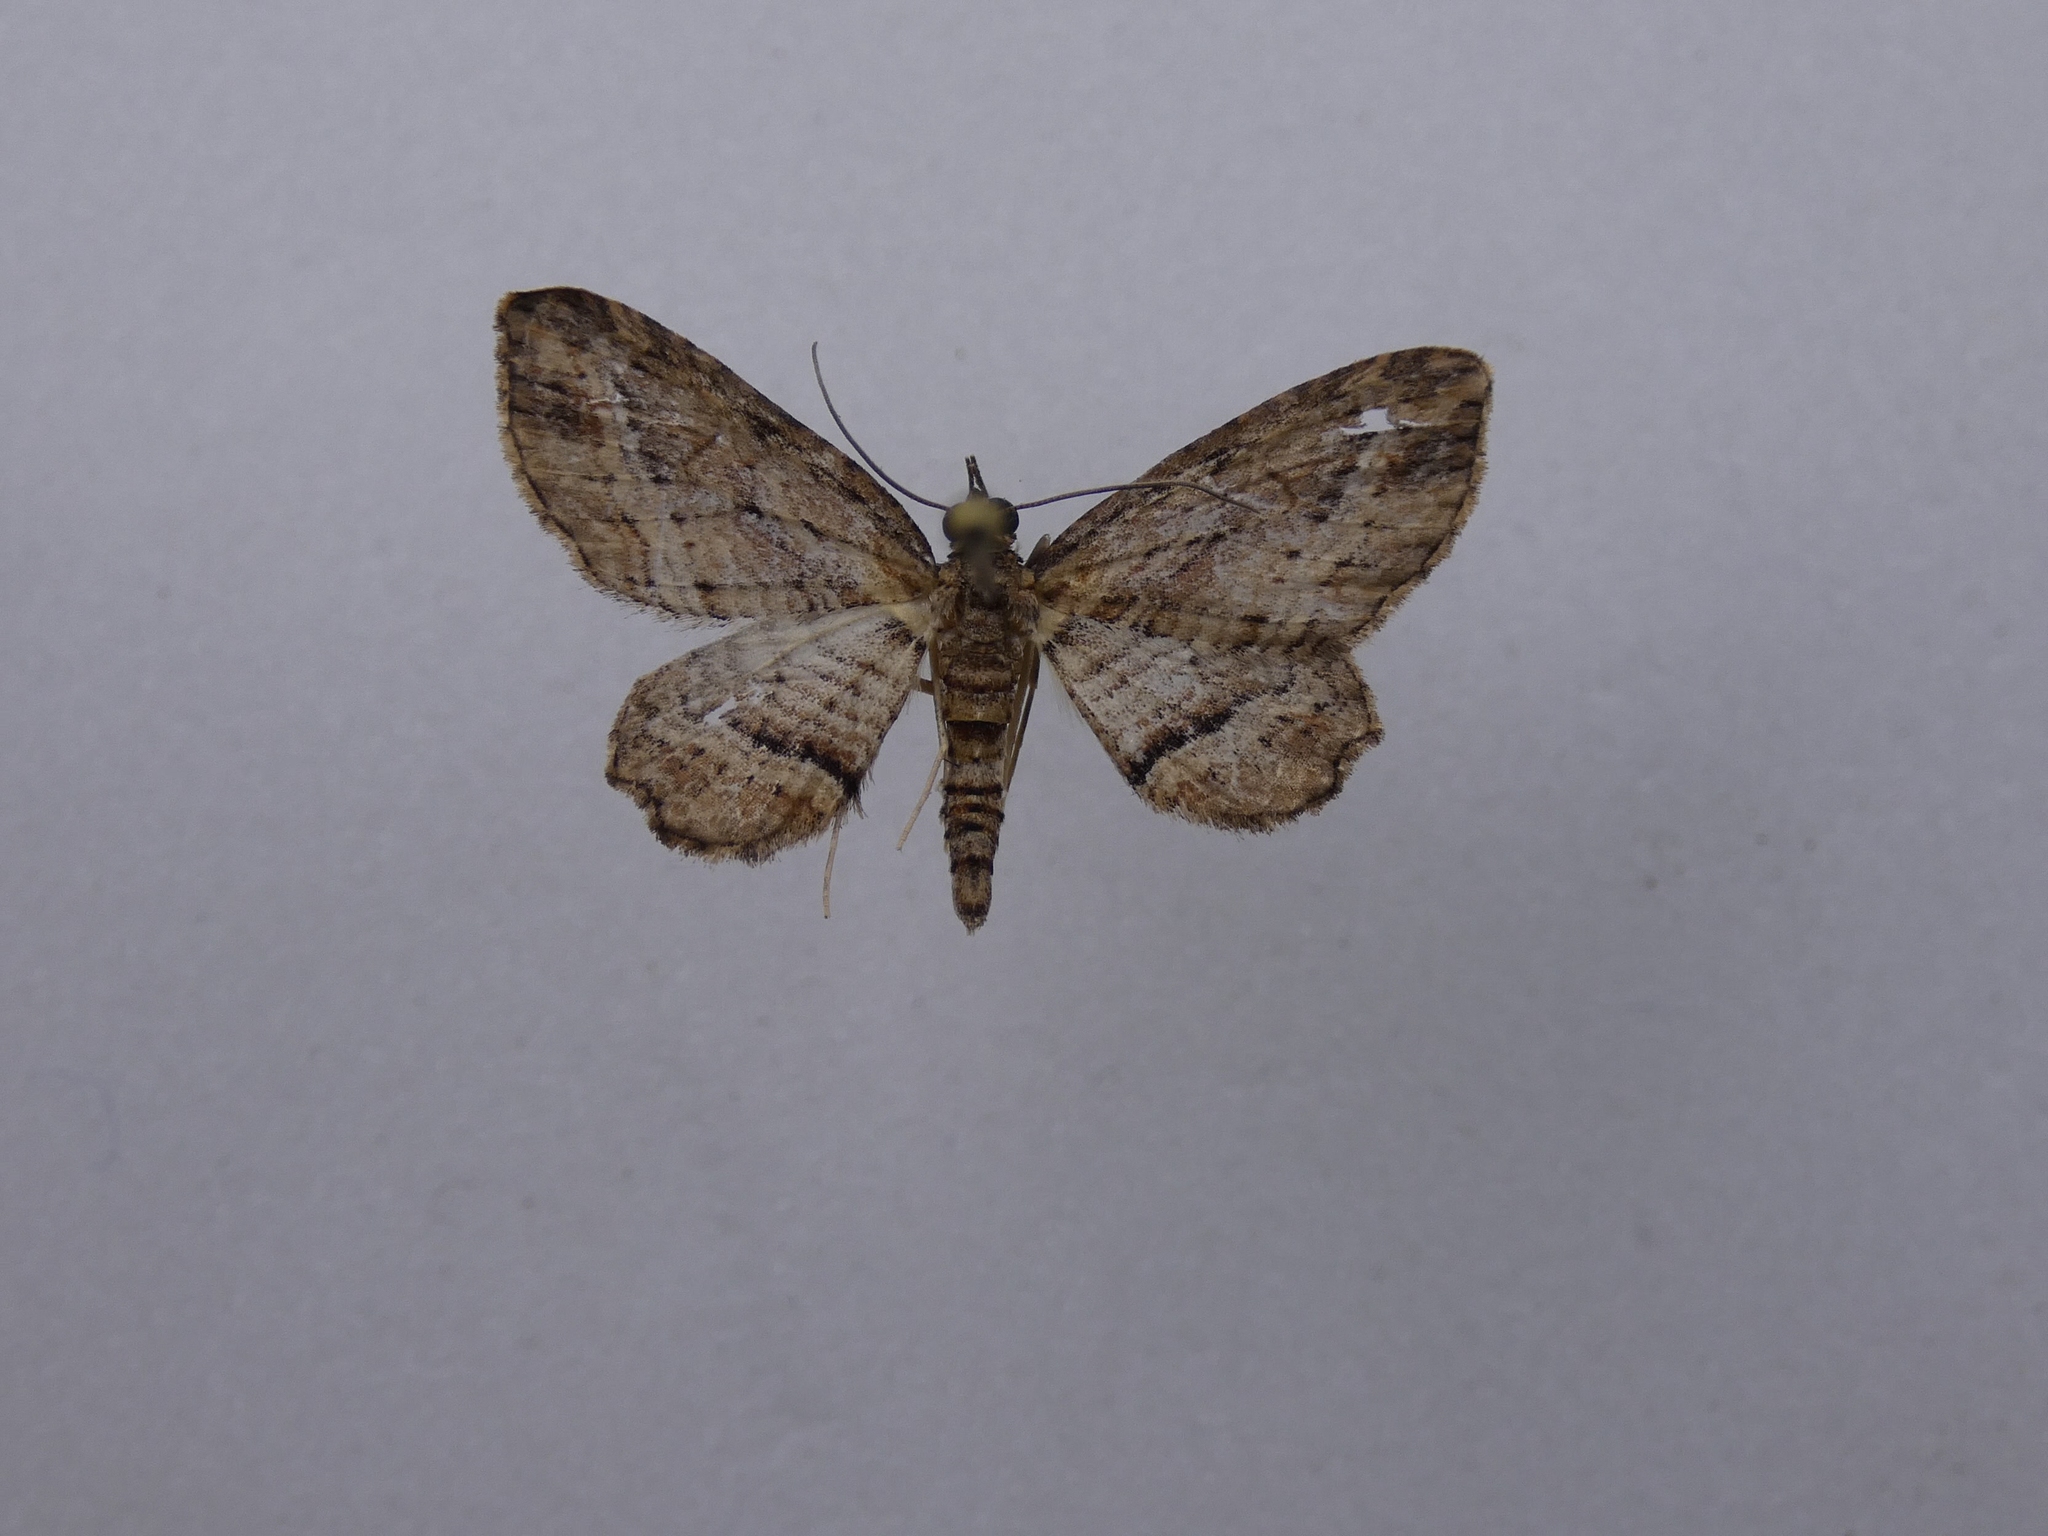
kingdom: Animalia
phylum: Arthropoda
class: Insecta
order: Lepidoptera
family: Geometridae
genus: Chloroclystis
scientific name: Chloroclystis filata
